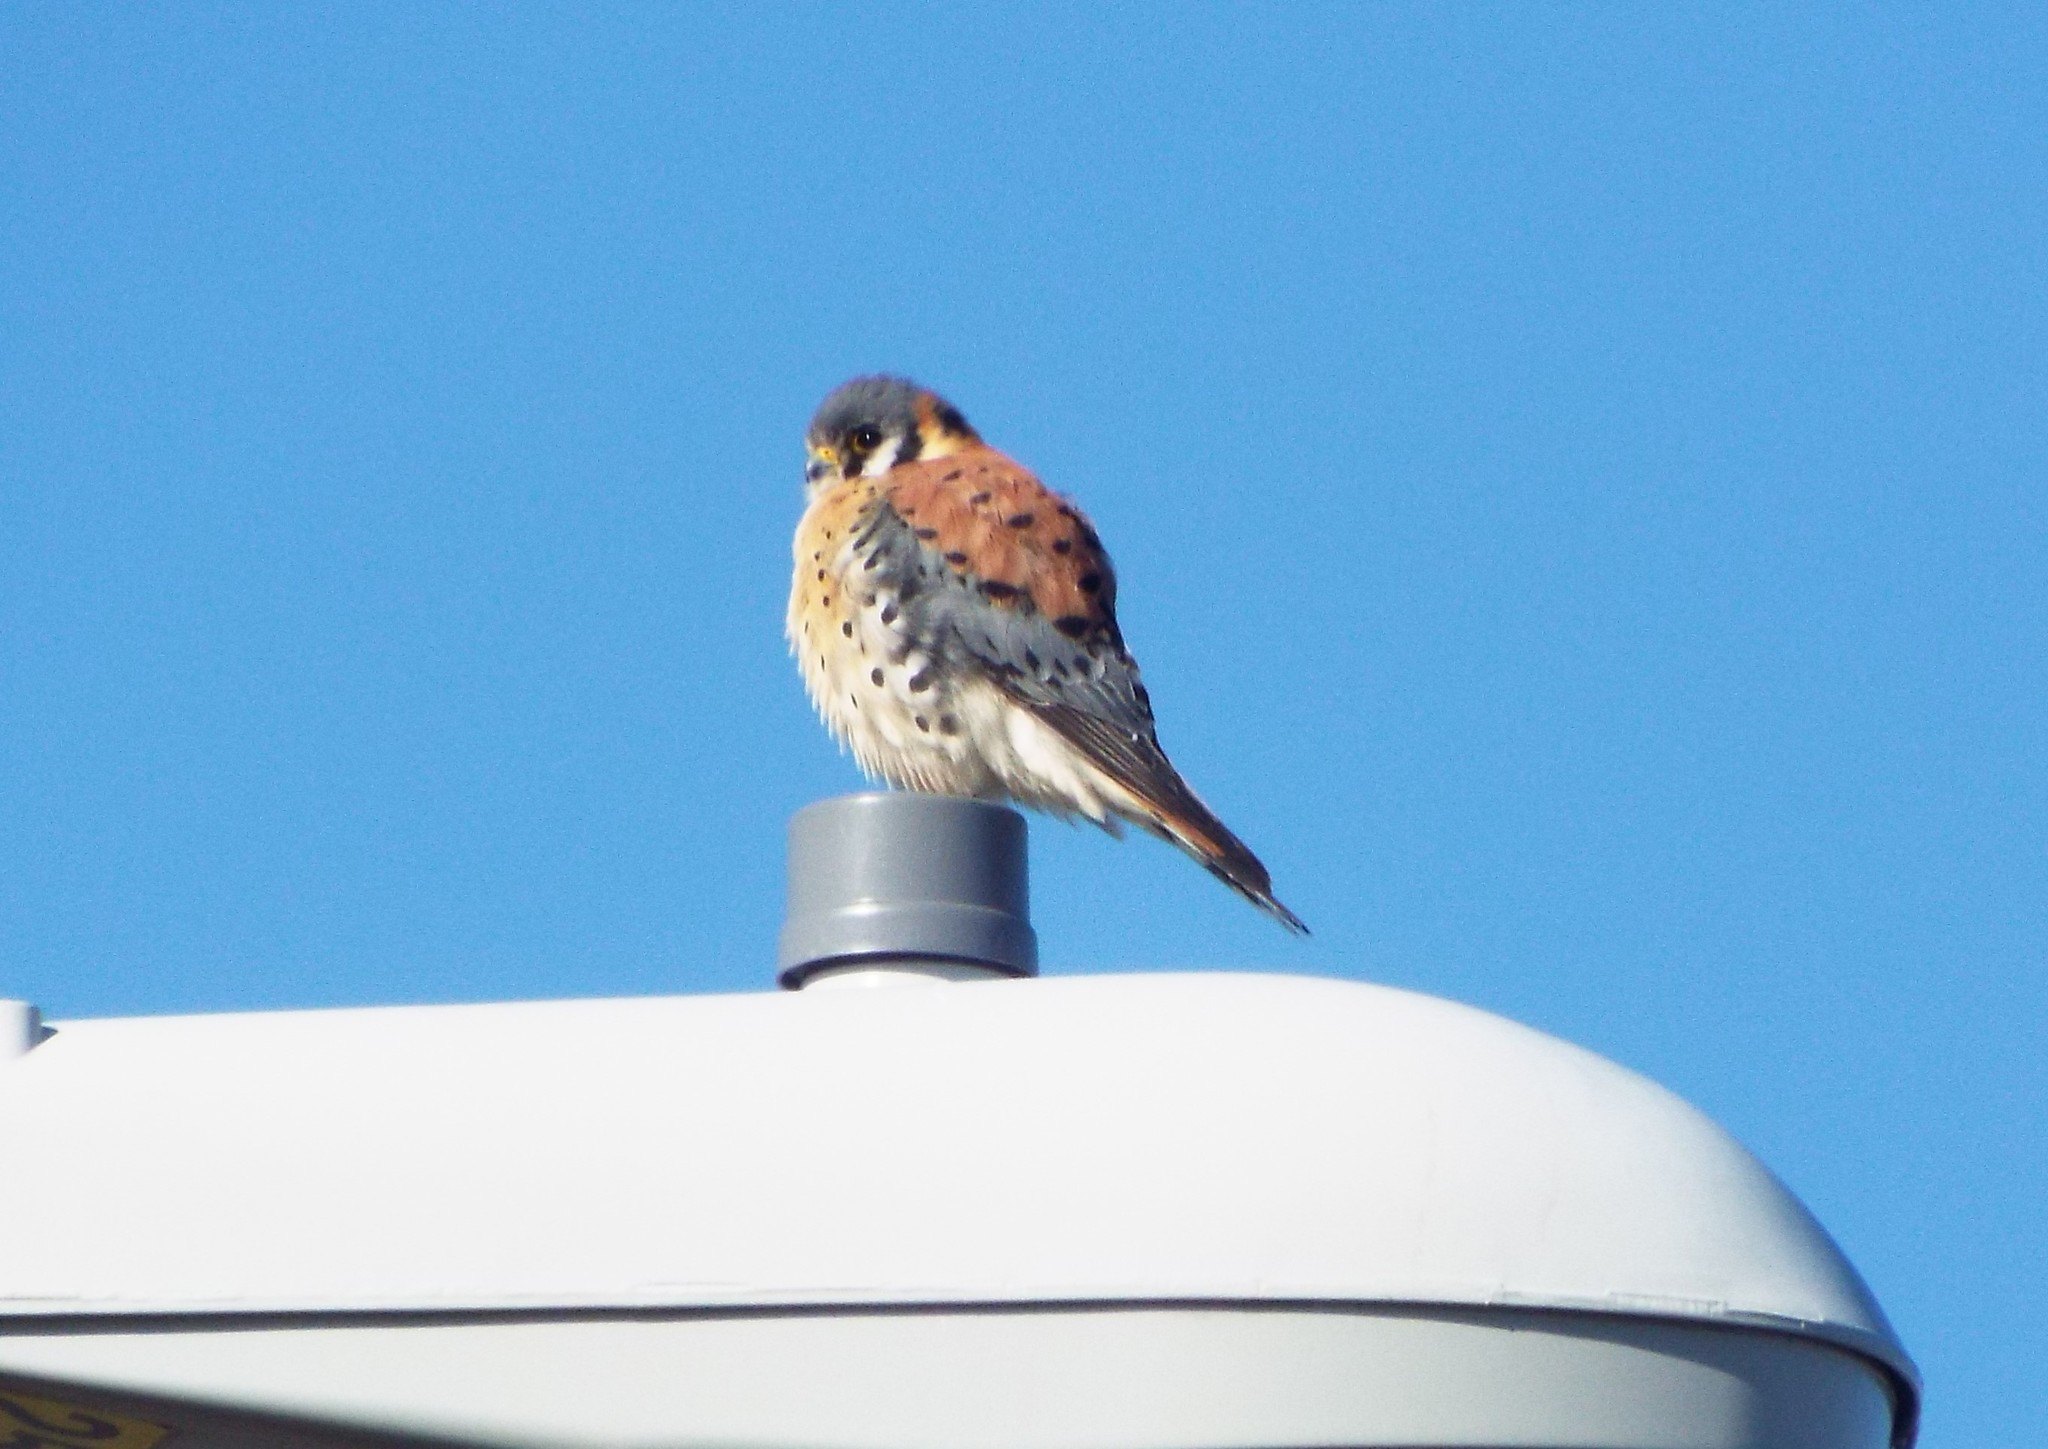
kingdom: Animalia
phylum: Chordata
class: Aves
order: Falconiformes
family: Falconidae
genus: Falco
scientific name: Falco sparverius
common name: American kestrel
